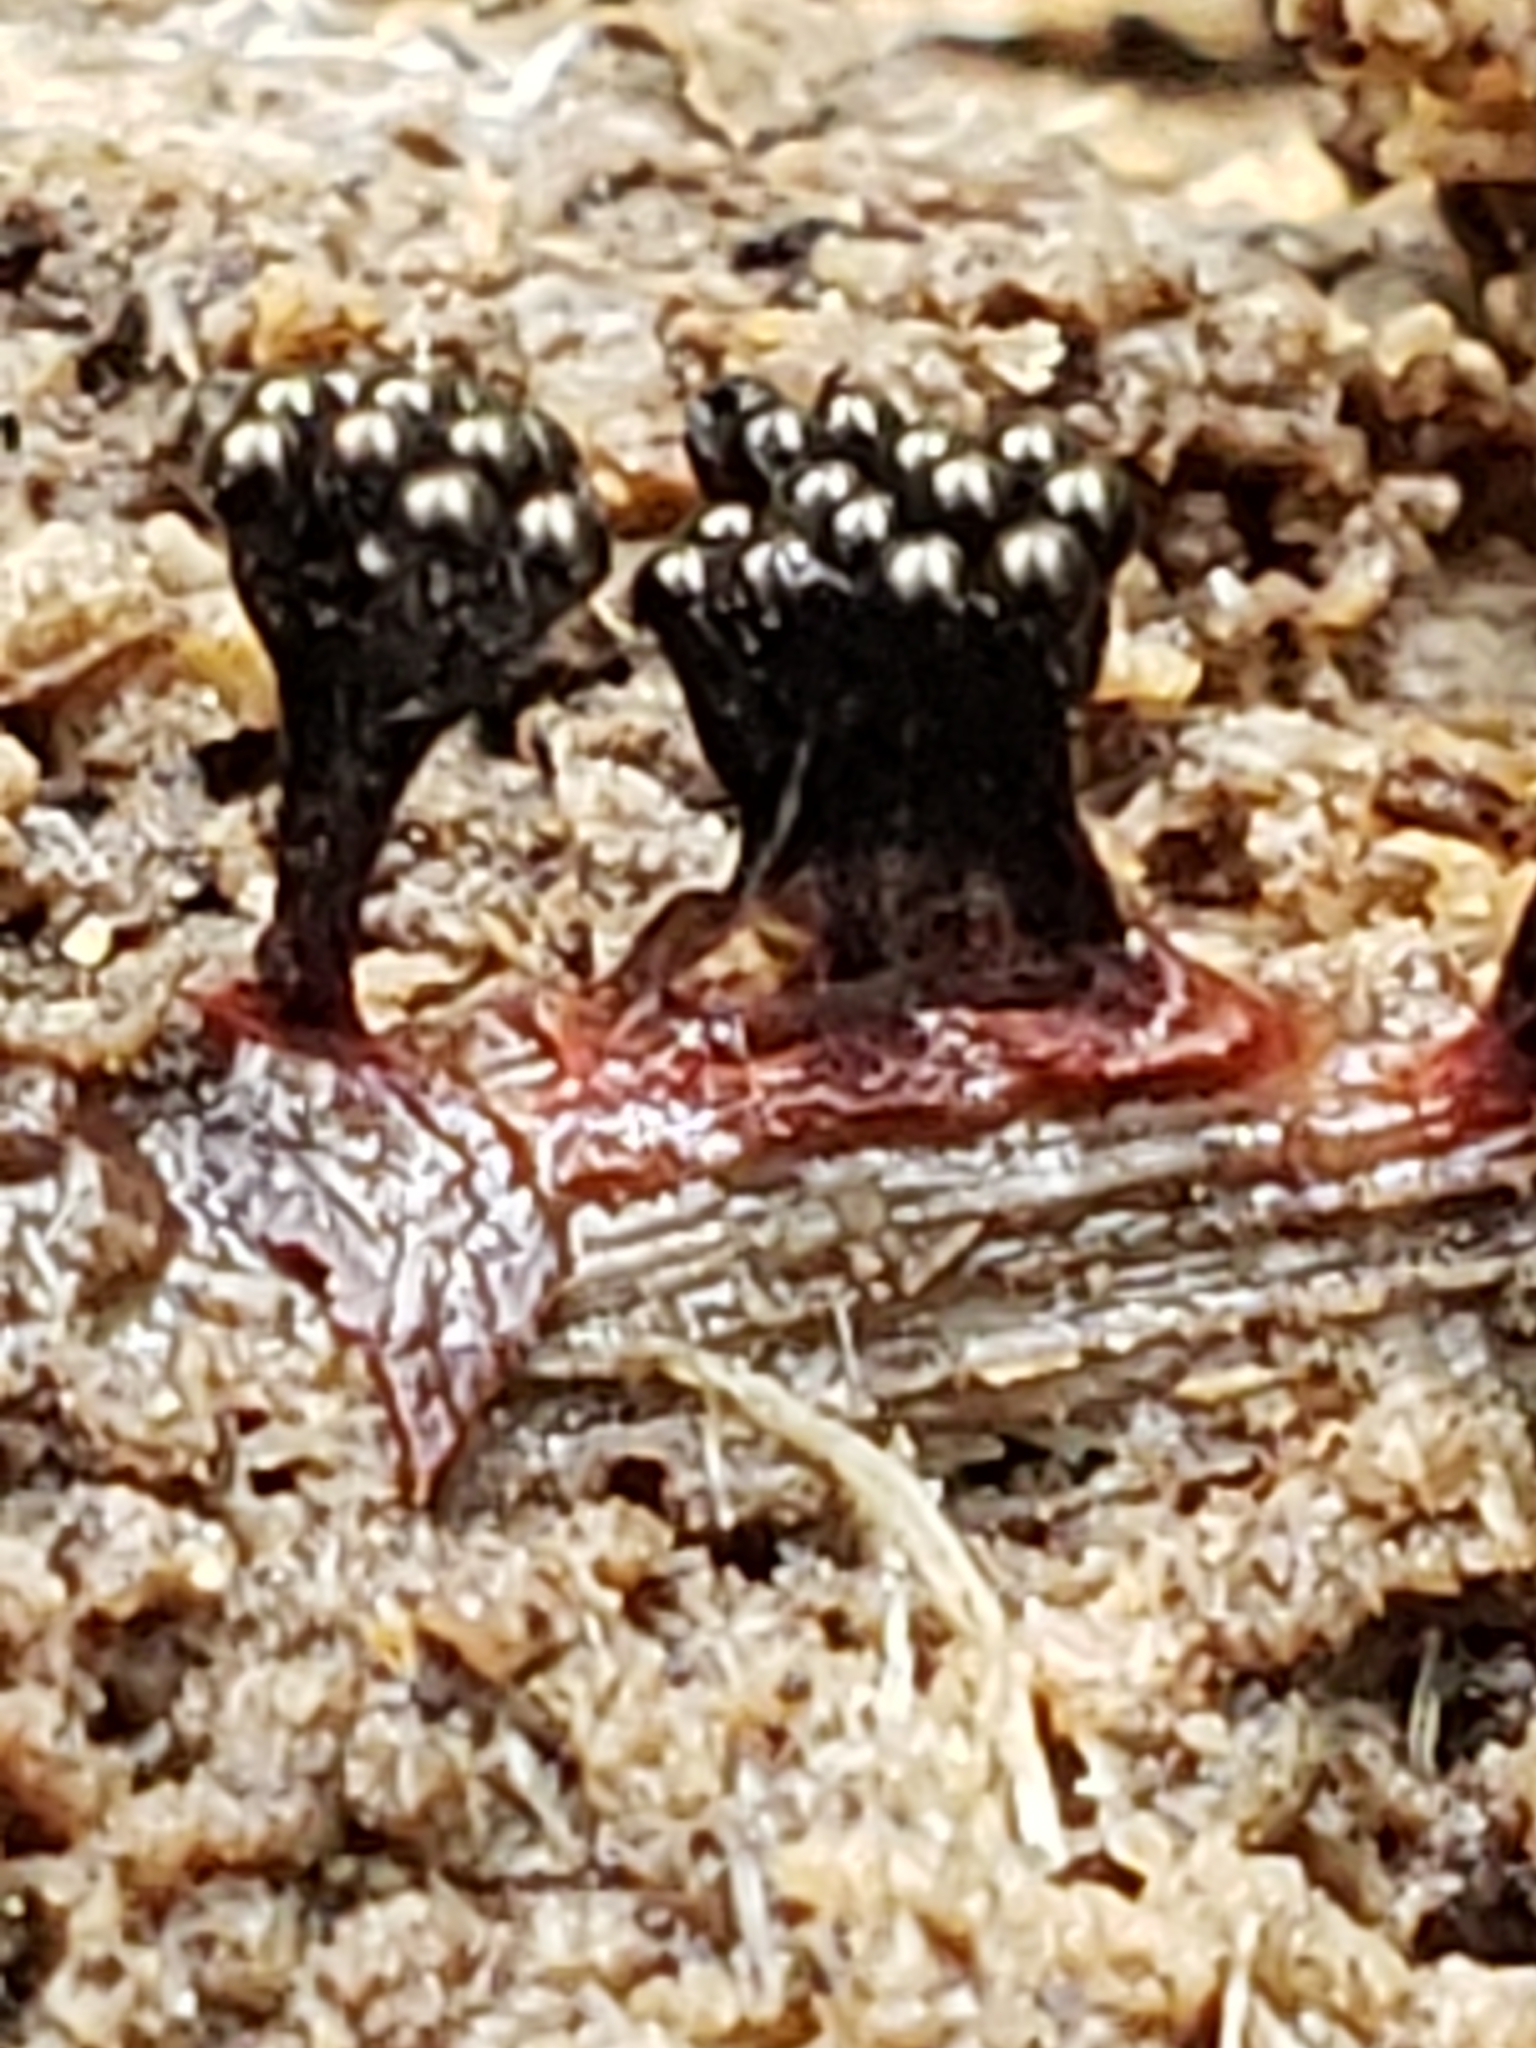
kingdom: Protozoa
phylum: Mycetozoa
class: Myxomycetes
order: Trichiales
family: Trichiaceae
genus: Metatrichia
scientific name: Metatrichia vesparia
